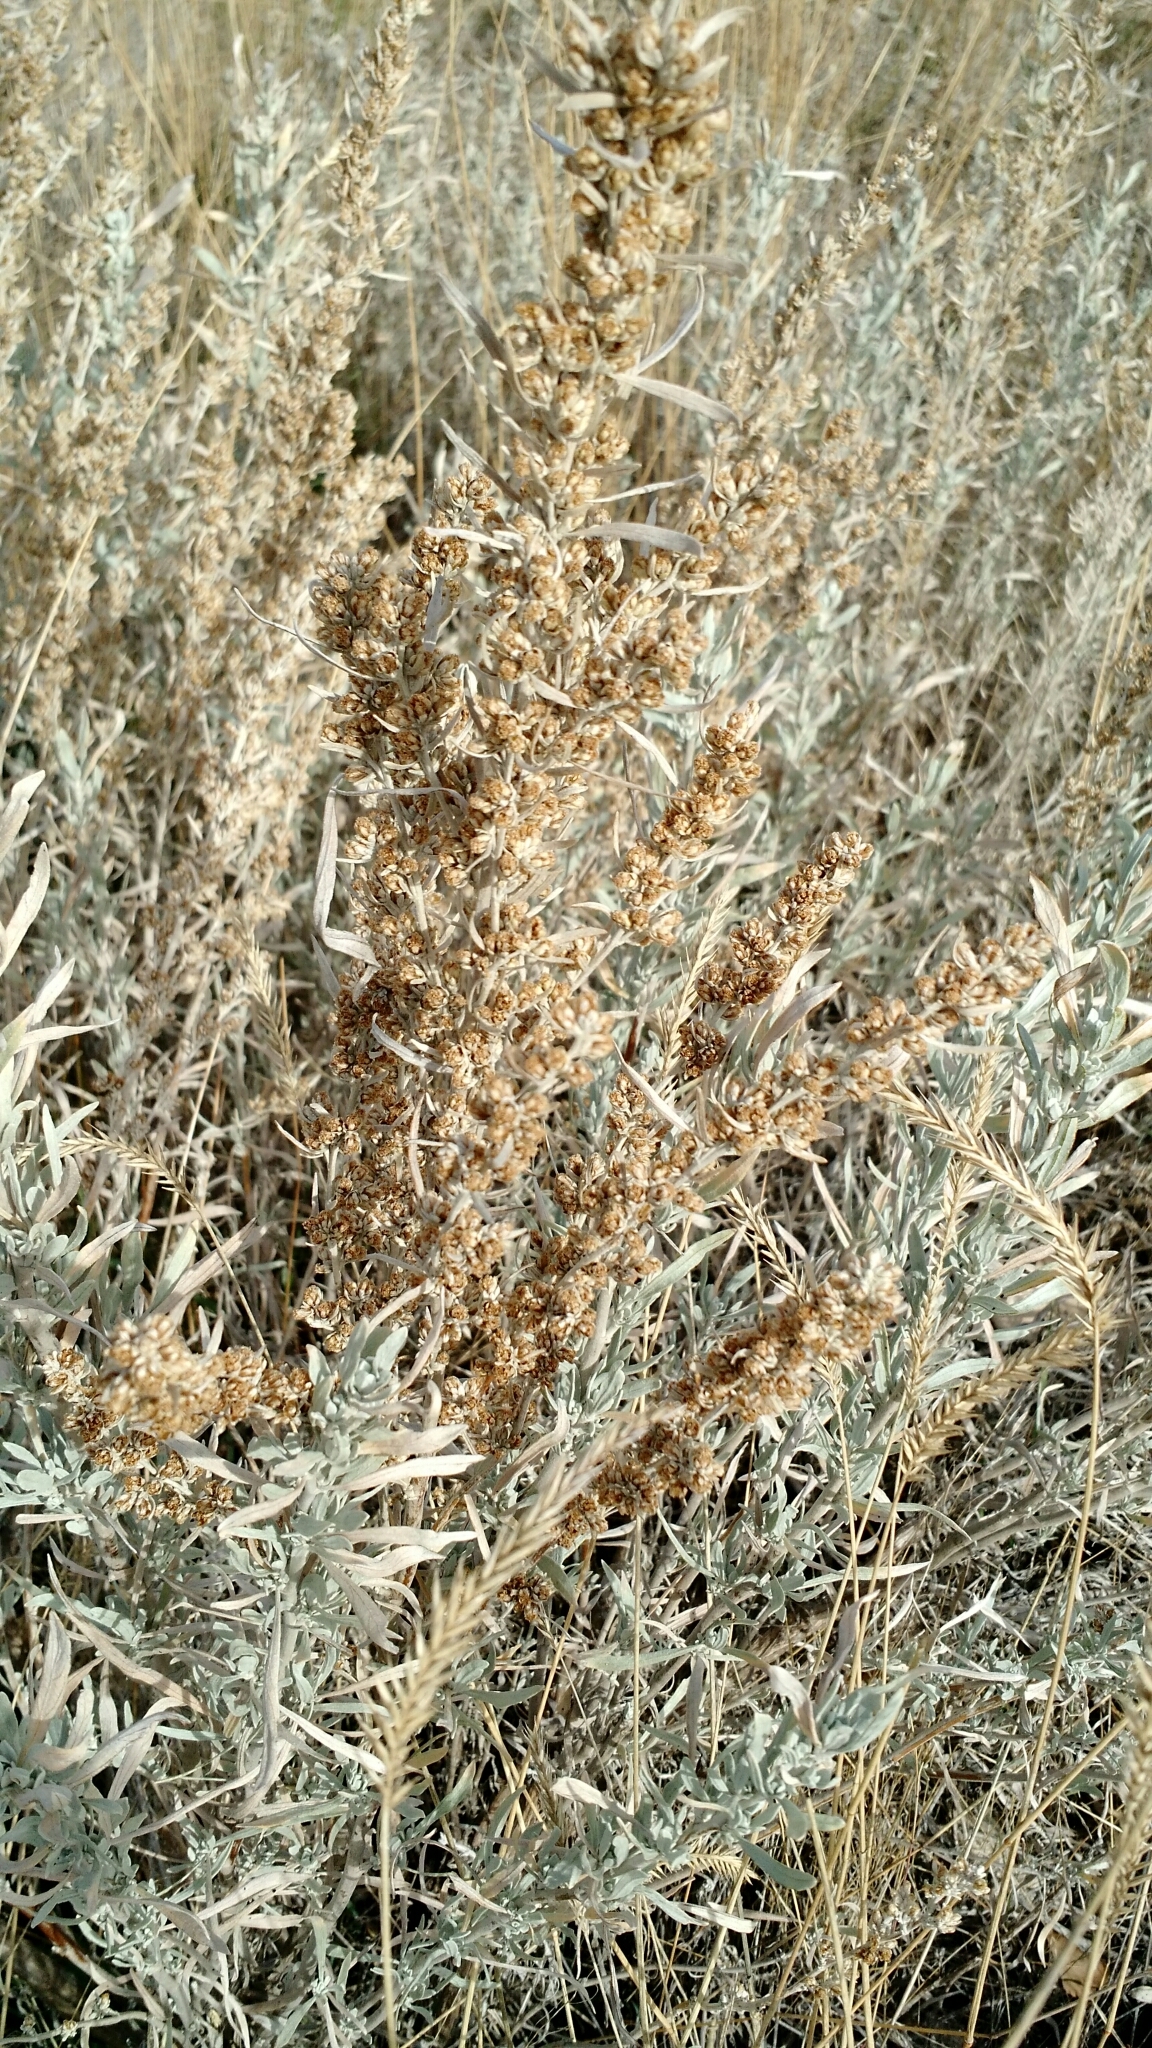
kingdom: Plantae
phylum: Tracheophyta
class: Magnoliopsida
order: Asterales
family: Asteraceae
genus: Artemisia
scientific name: Artemisia cana
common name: Silver sagebrush
